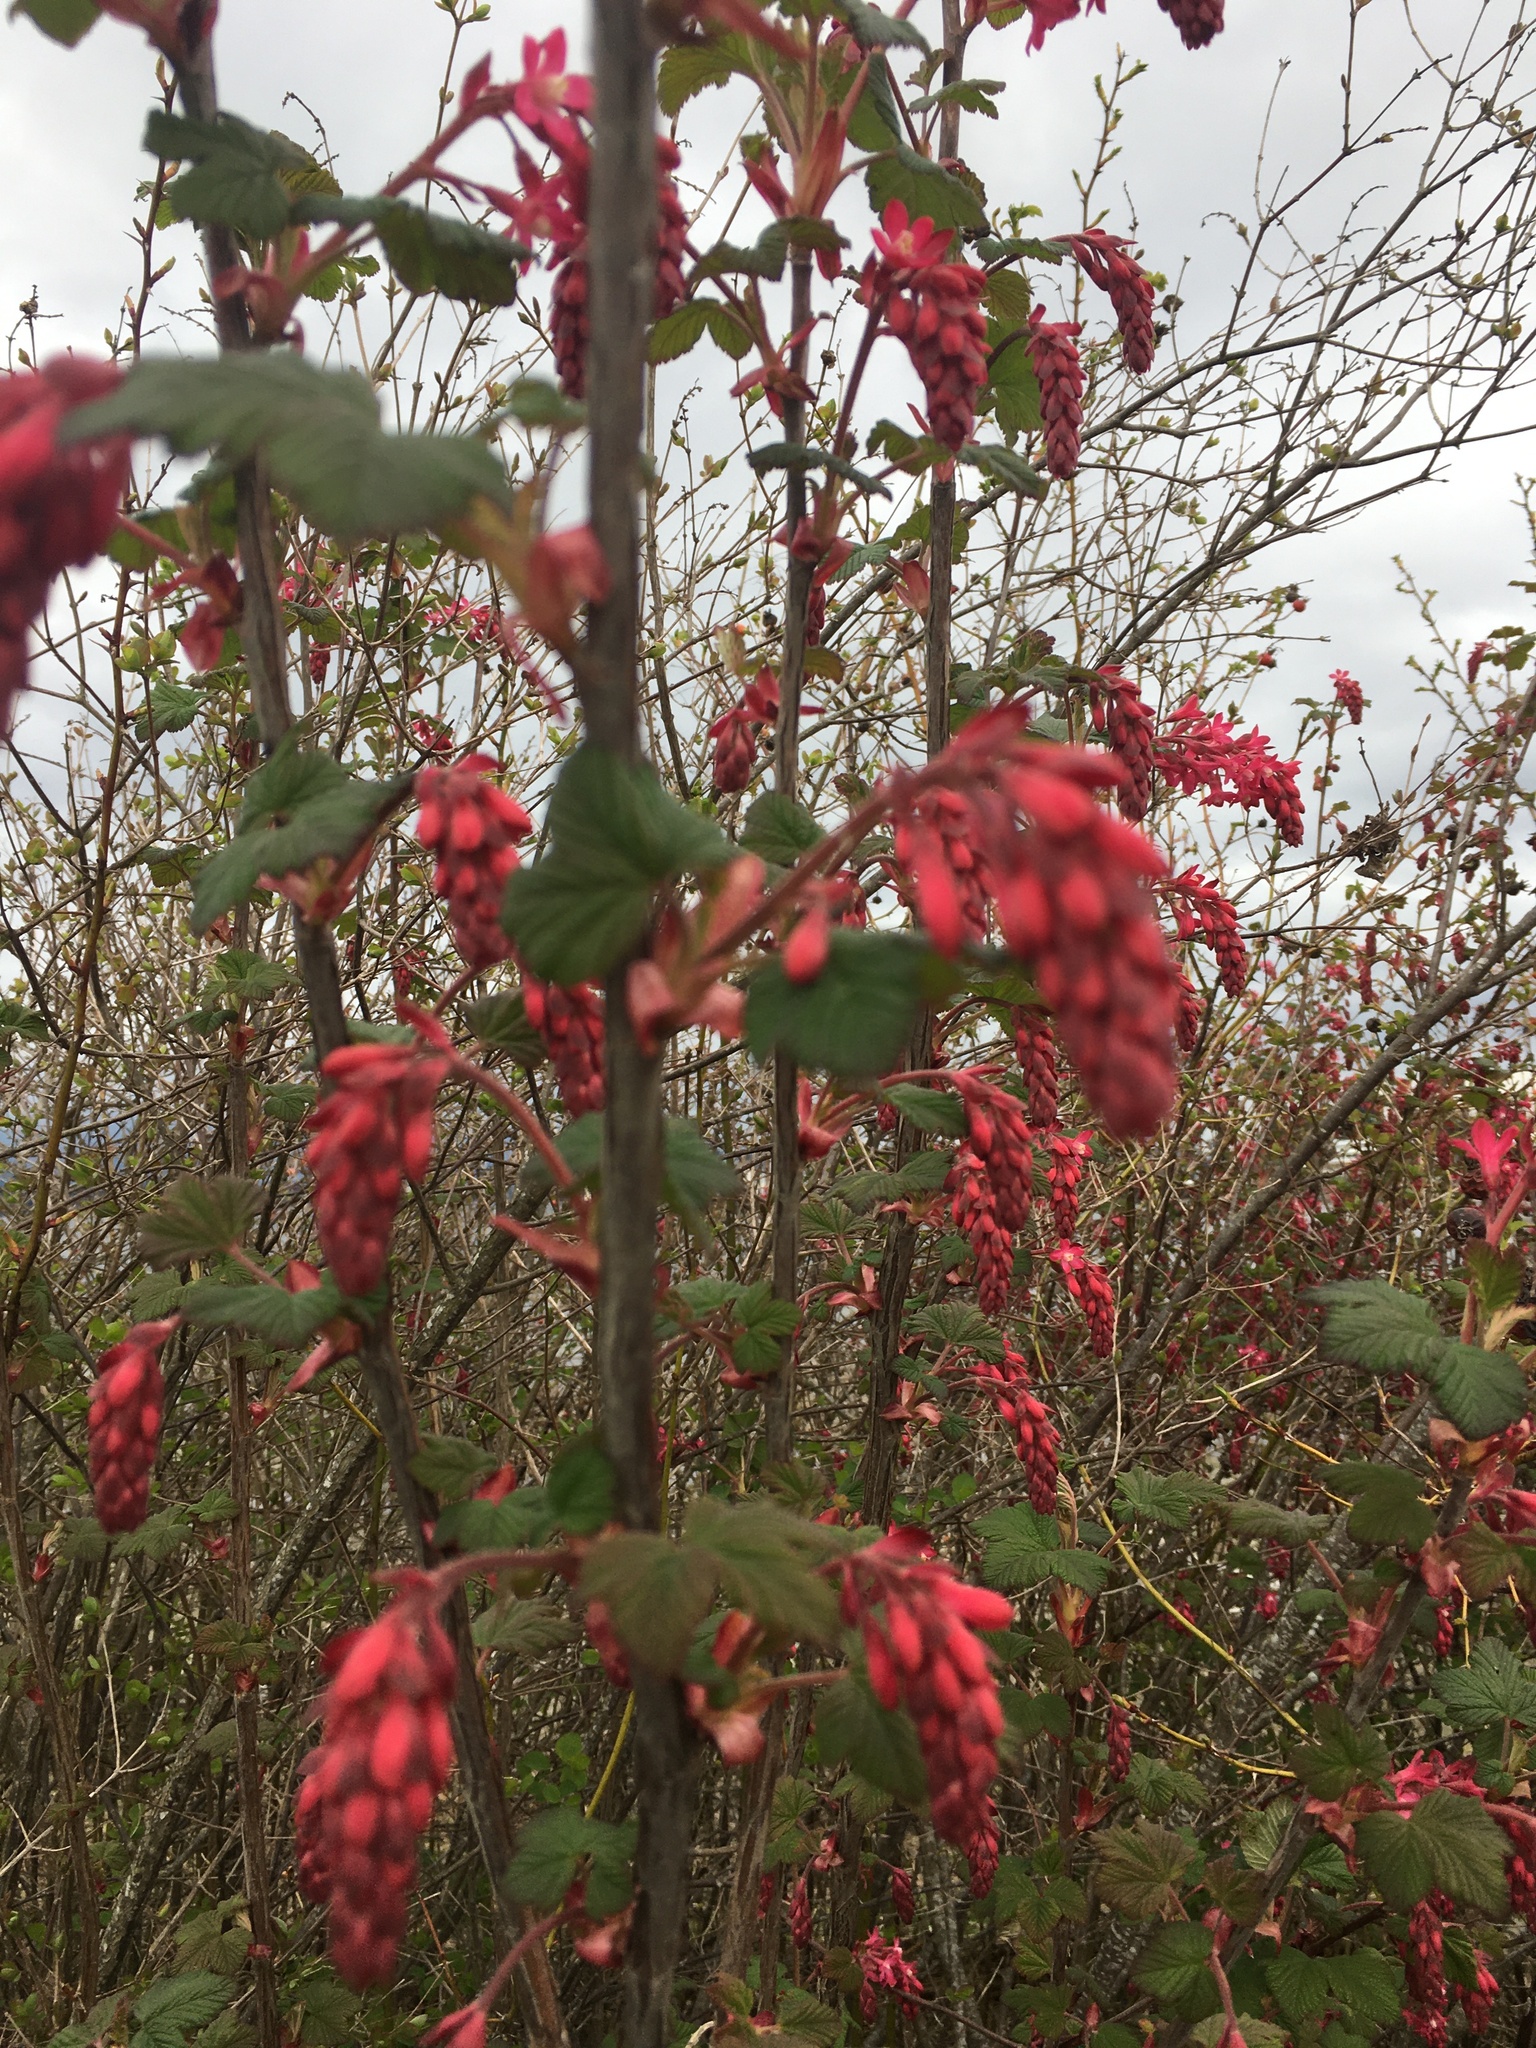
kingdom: Plantae
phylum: Tracheophyta
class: Magnoliopsida
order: Saxifragales
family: Grossulariaceae
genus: Ribes
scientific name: Ribes sanguineum
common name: Flowering currant
